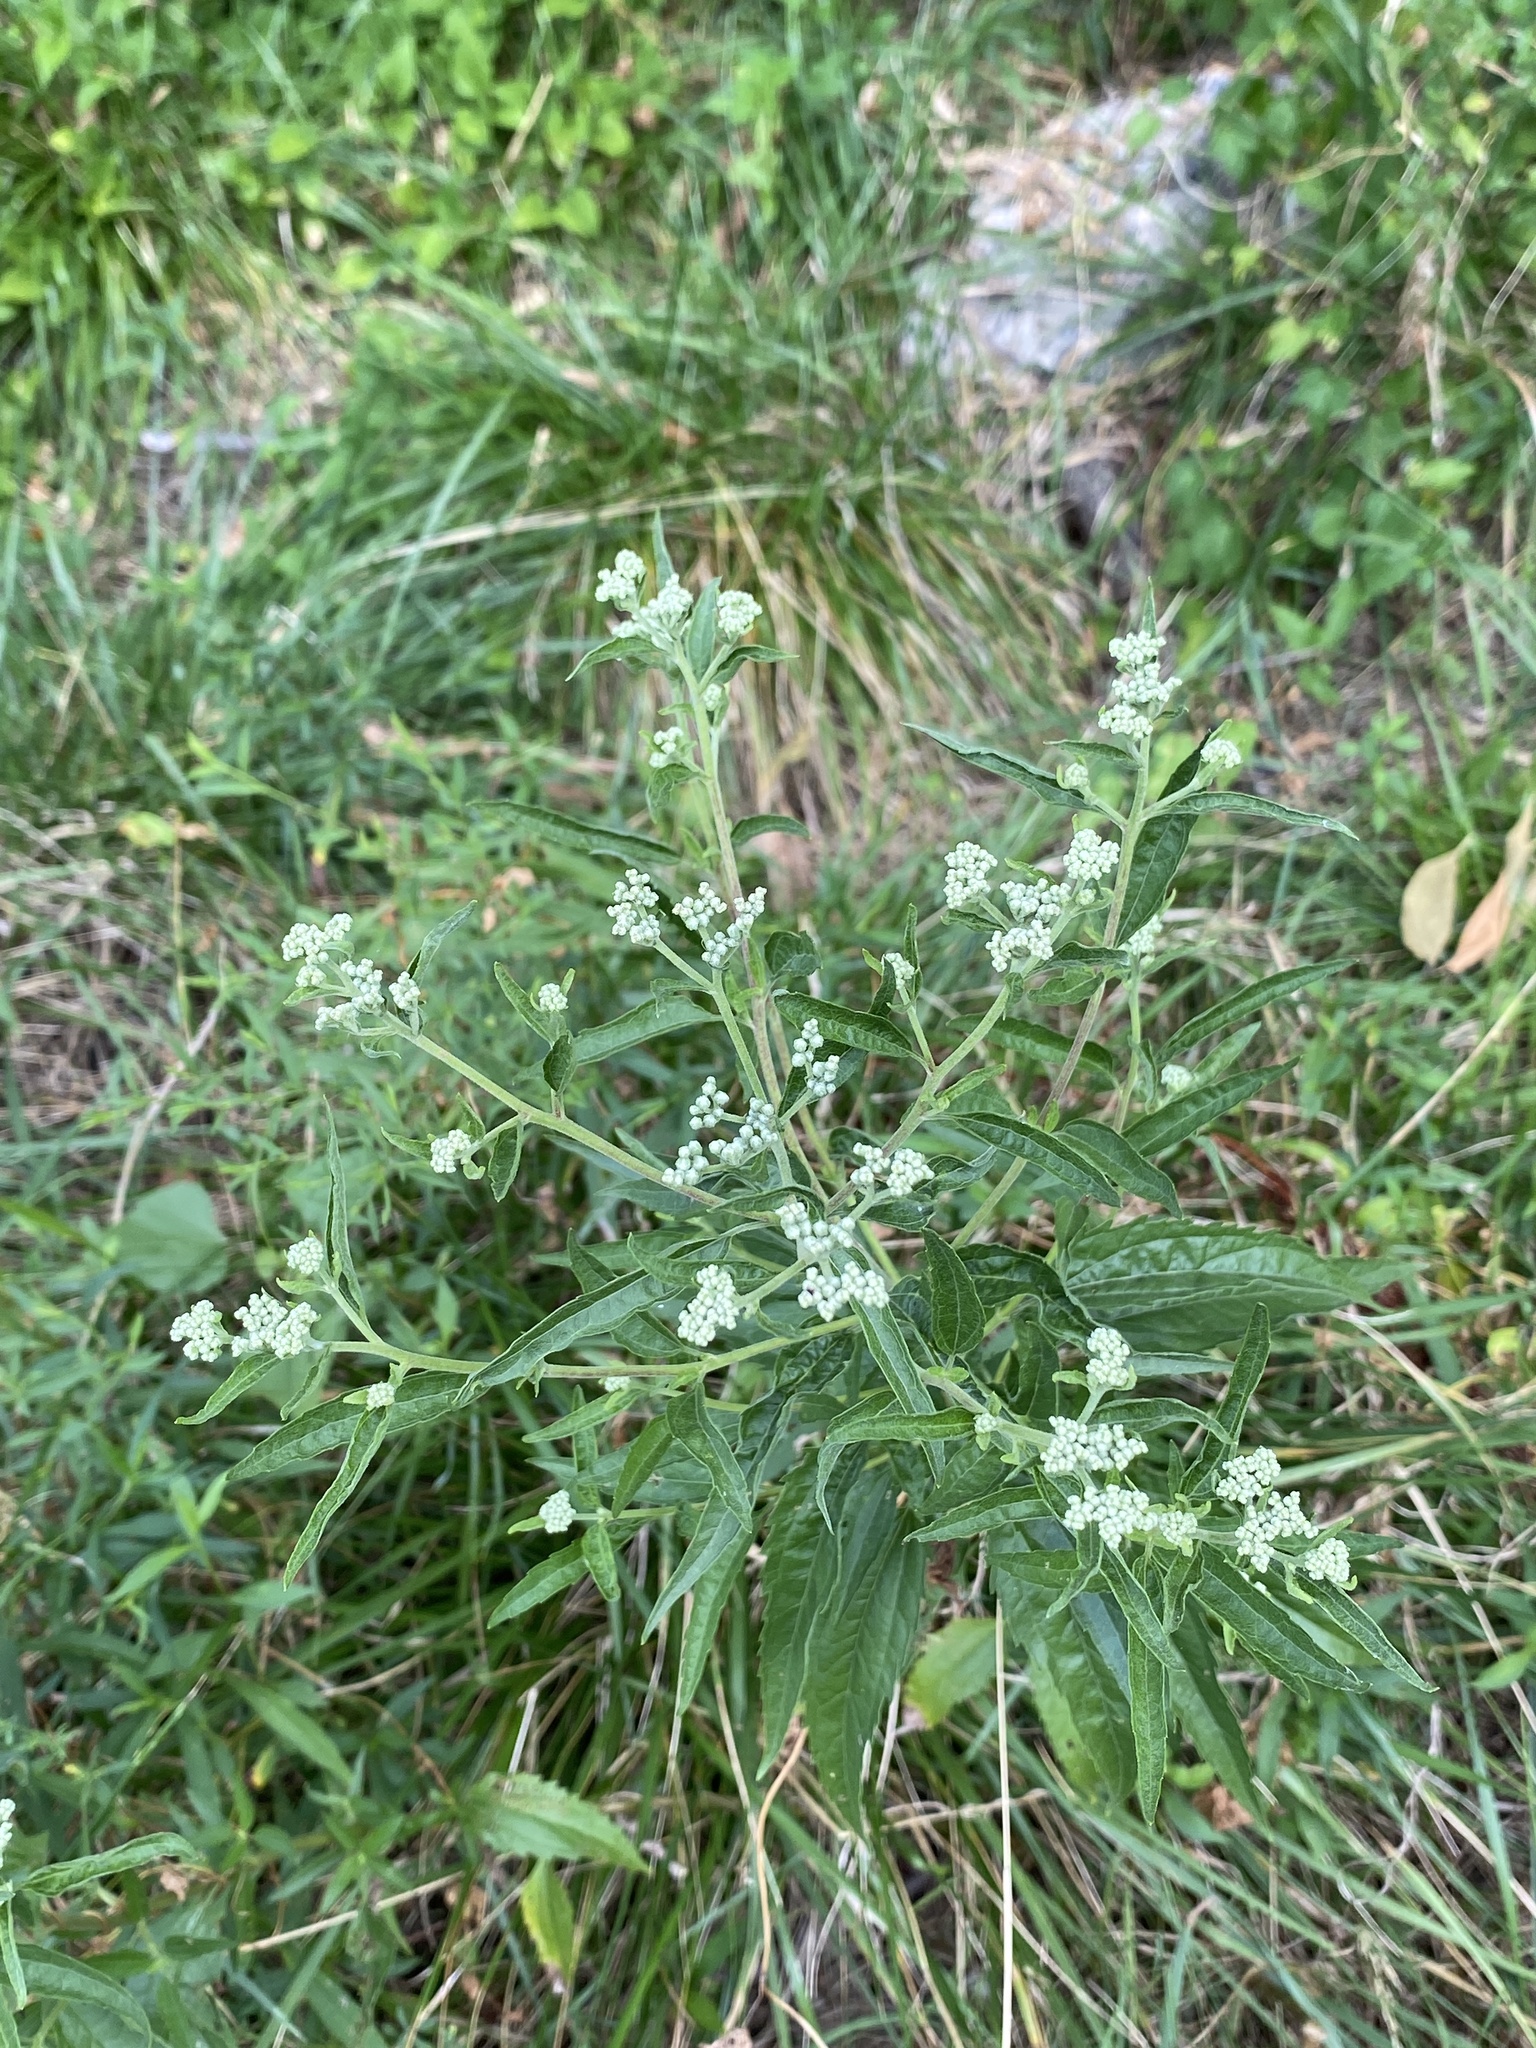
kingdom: Plantae
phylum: Tracheophyta
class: Magnoliopsida
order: Asterales
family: Asteraceae
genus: Eupatorium
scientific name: Eupatorium serotinum
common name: Late boneset
